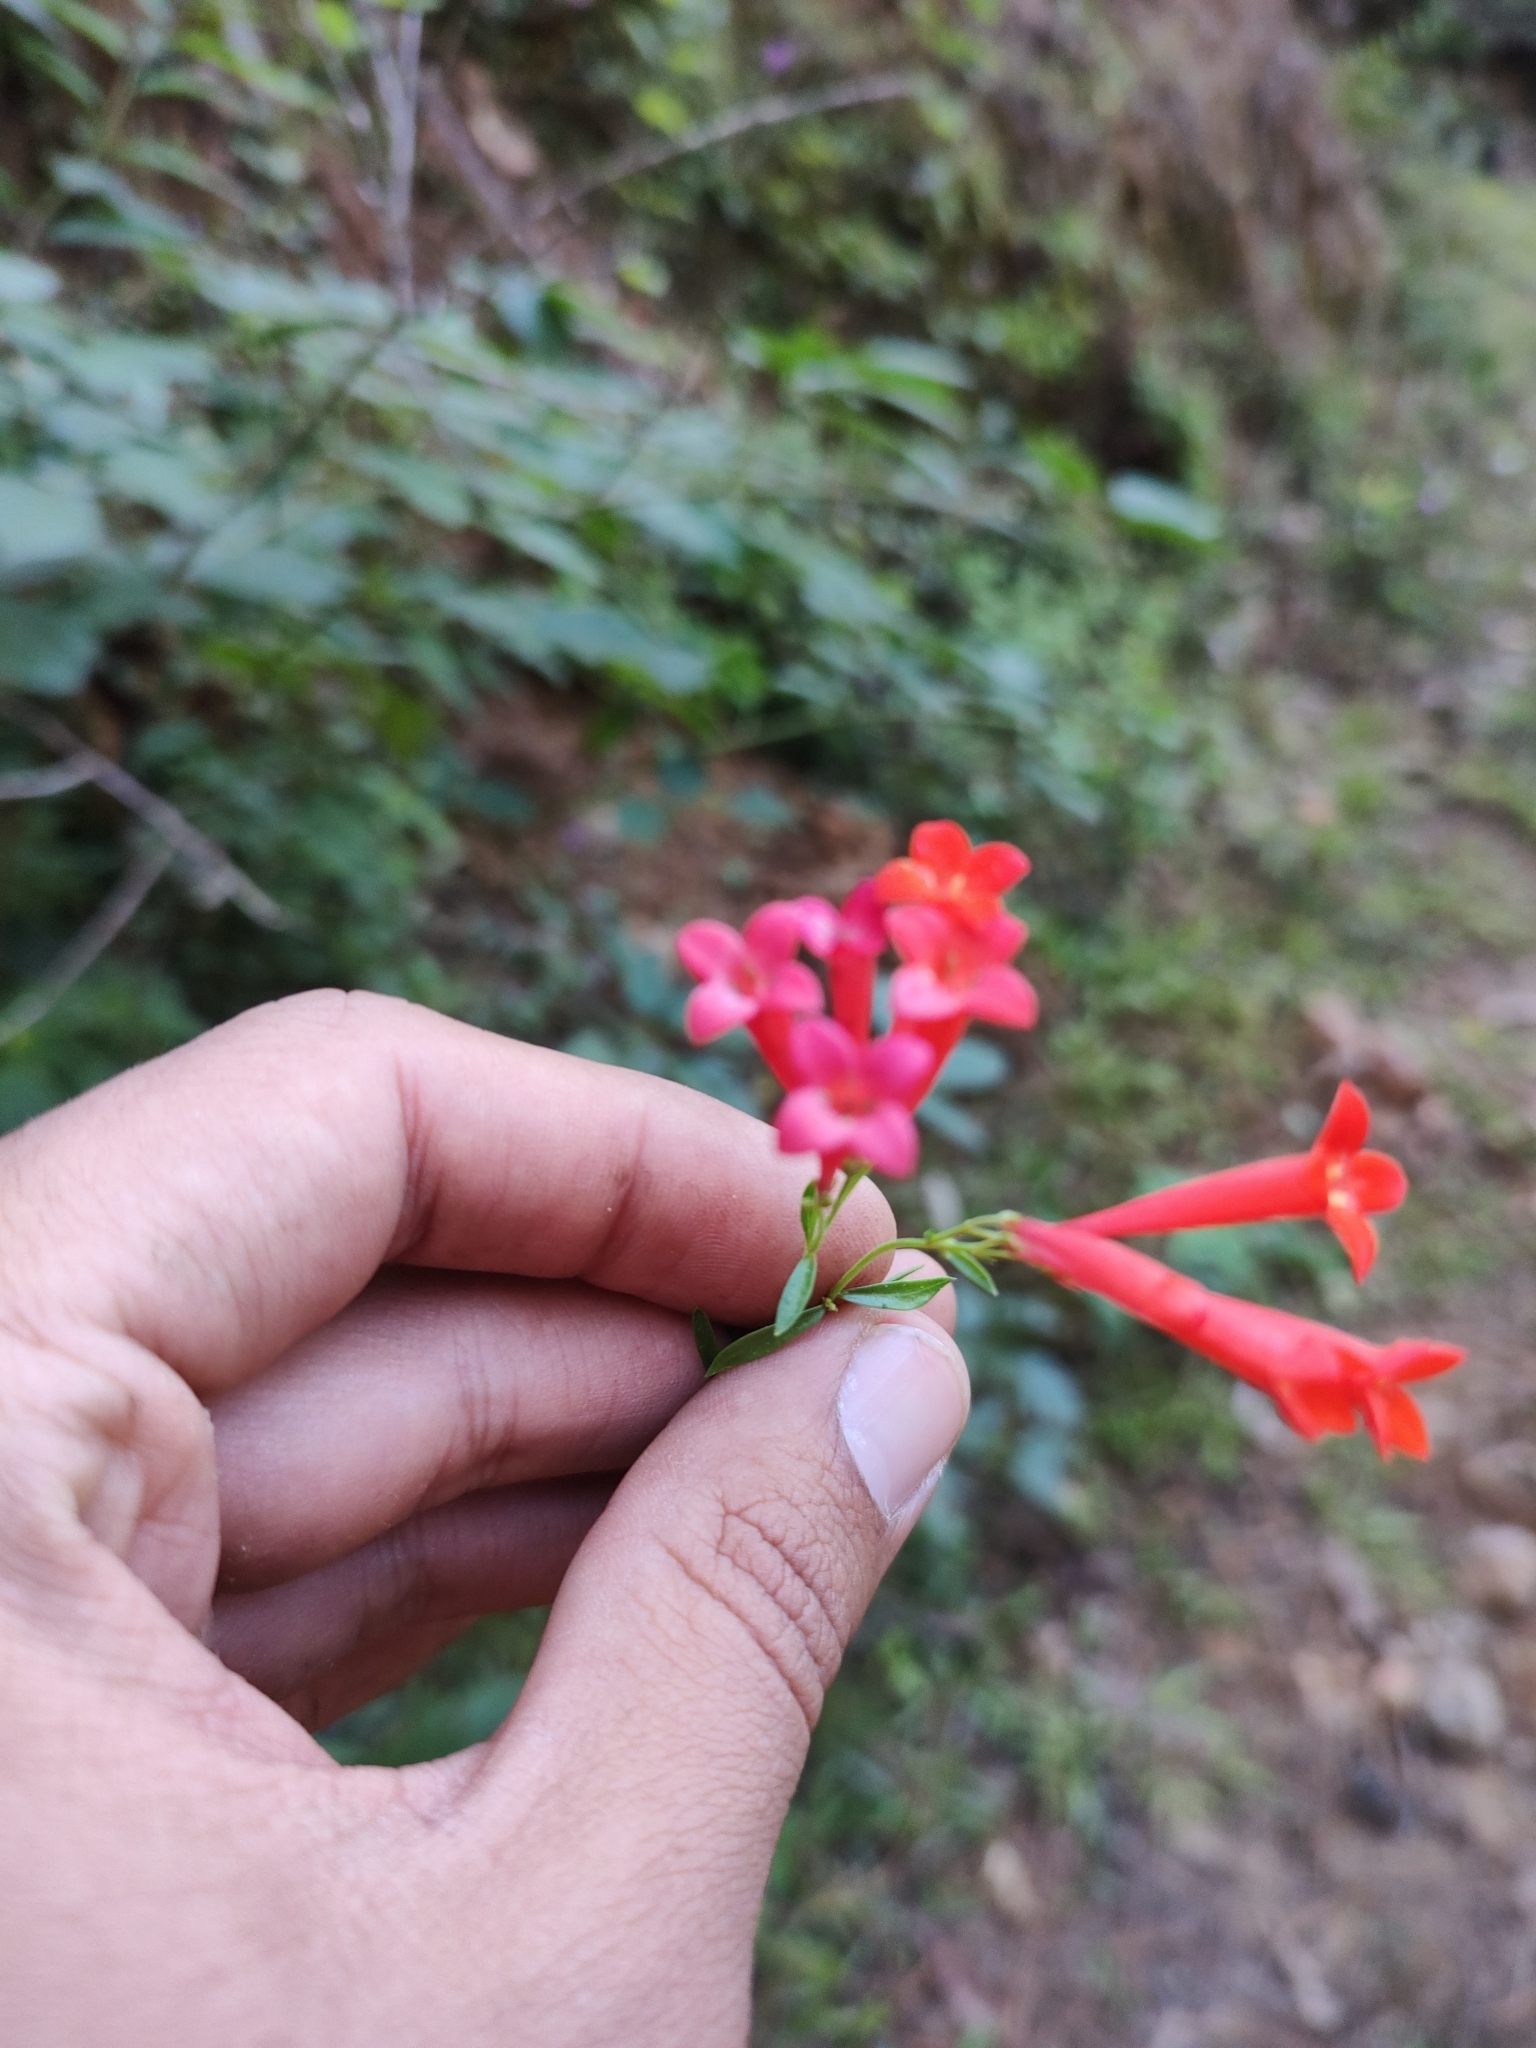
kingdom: Plantae
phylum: Tracheophyta
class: Magnoliopsida
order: Gentianales
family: Rubiaceae
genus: Bouvardia
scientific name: Bouvardia ternifolia
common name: Scarlet bouvardia
